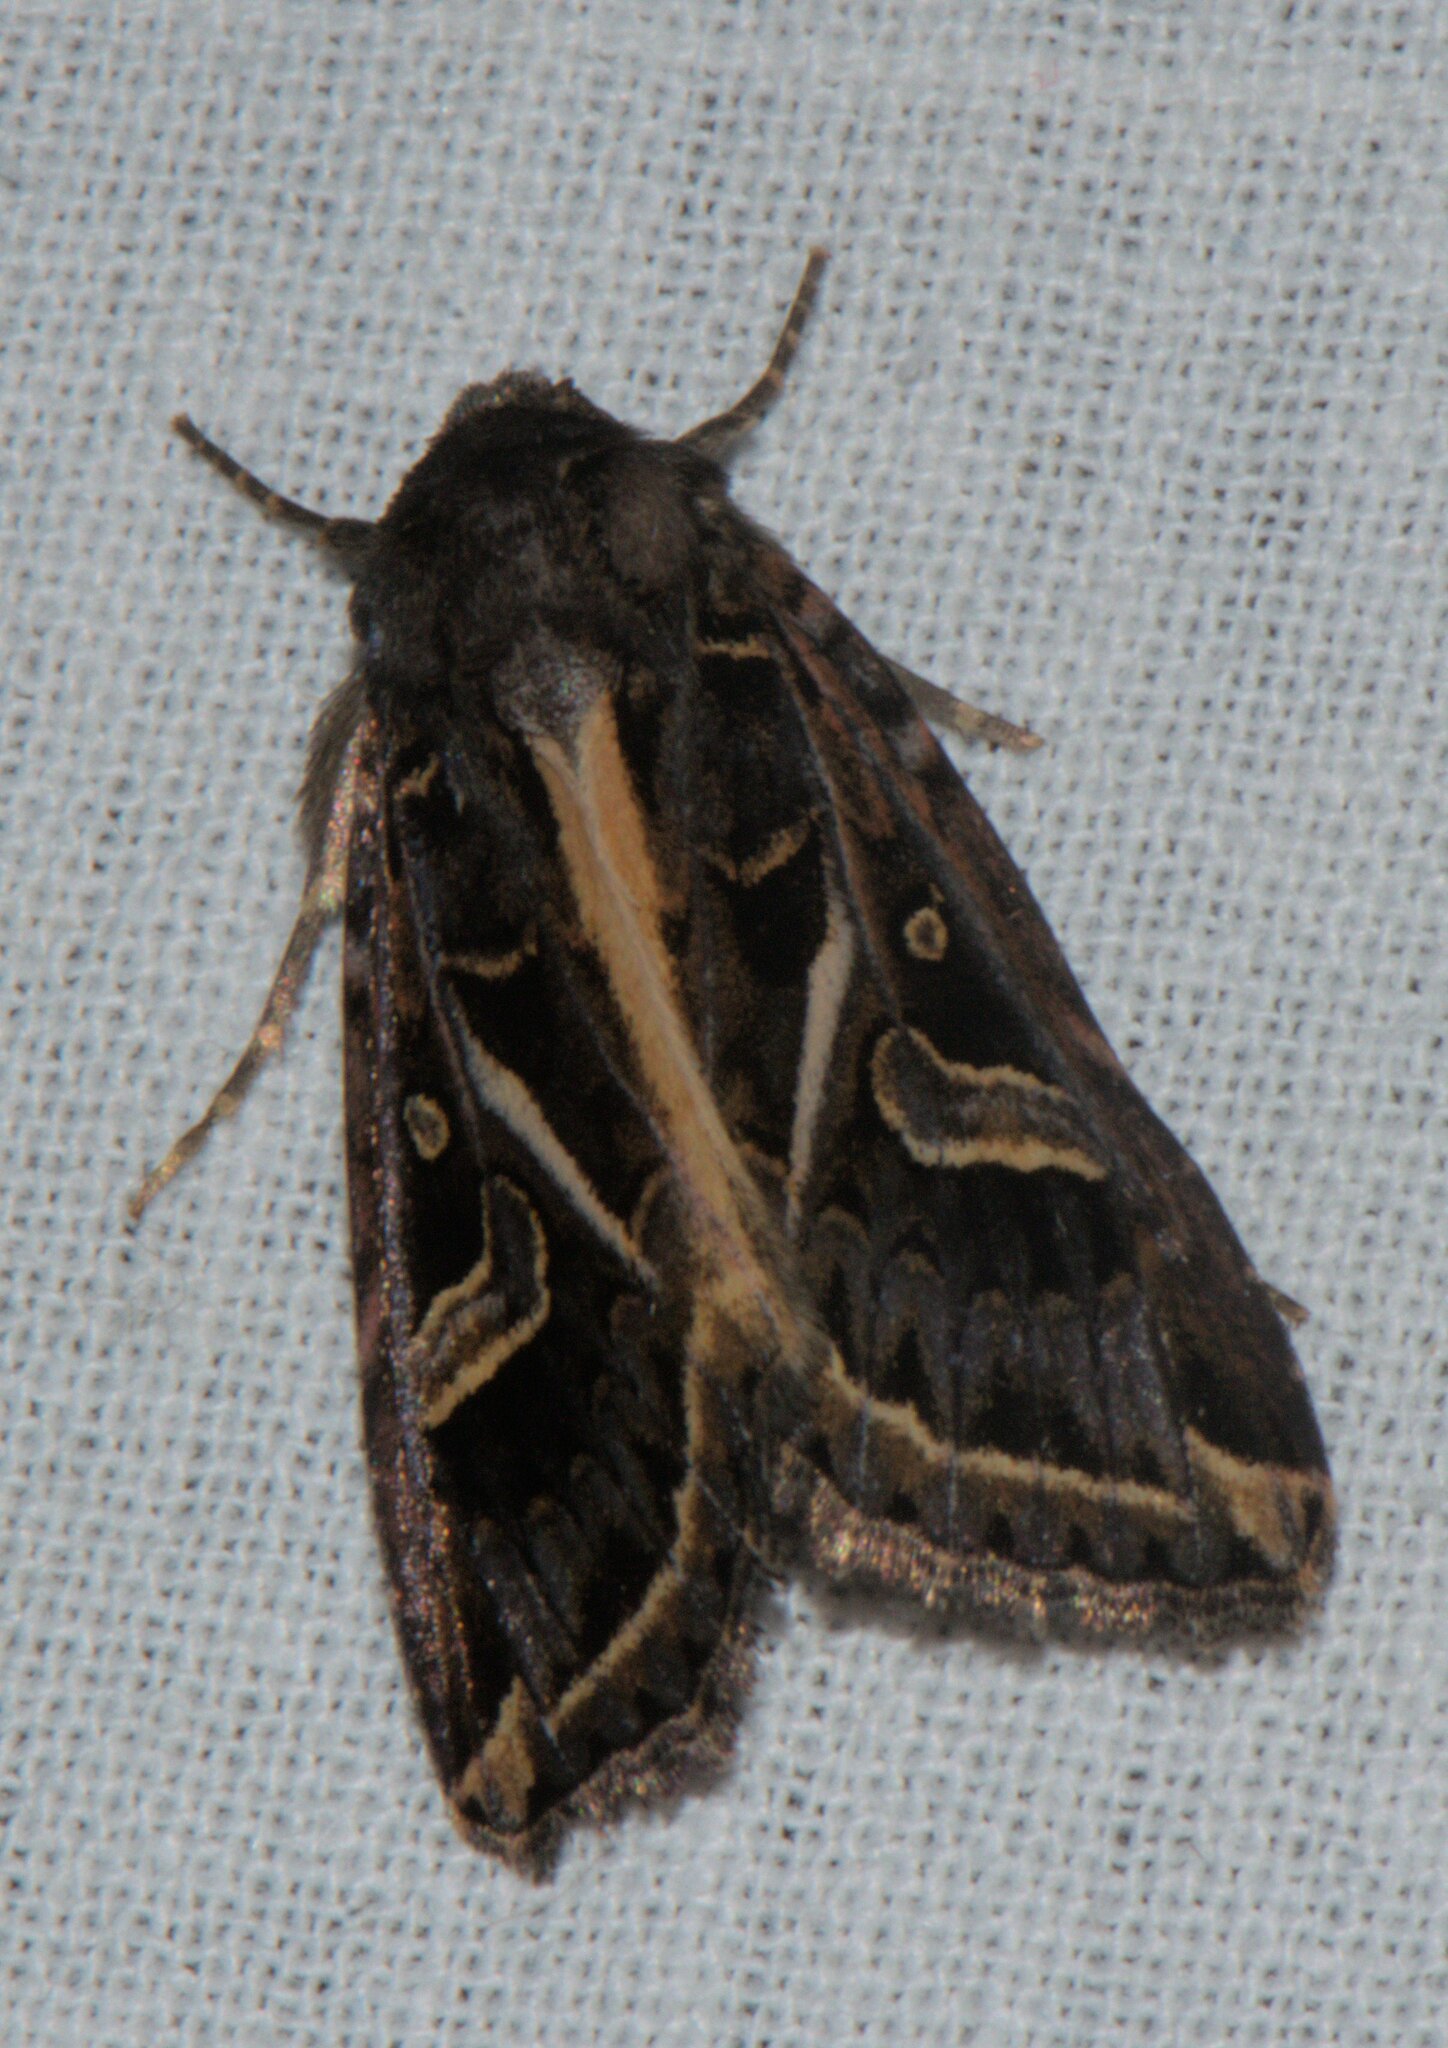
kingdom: Animalia
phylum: Arthropoda
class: Insecta
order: Lepidoptera
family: Noctuidae
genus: Odontestra
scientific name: Odontestra
